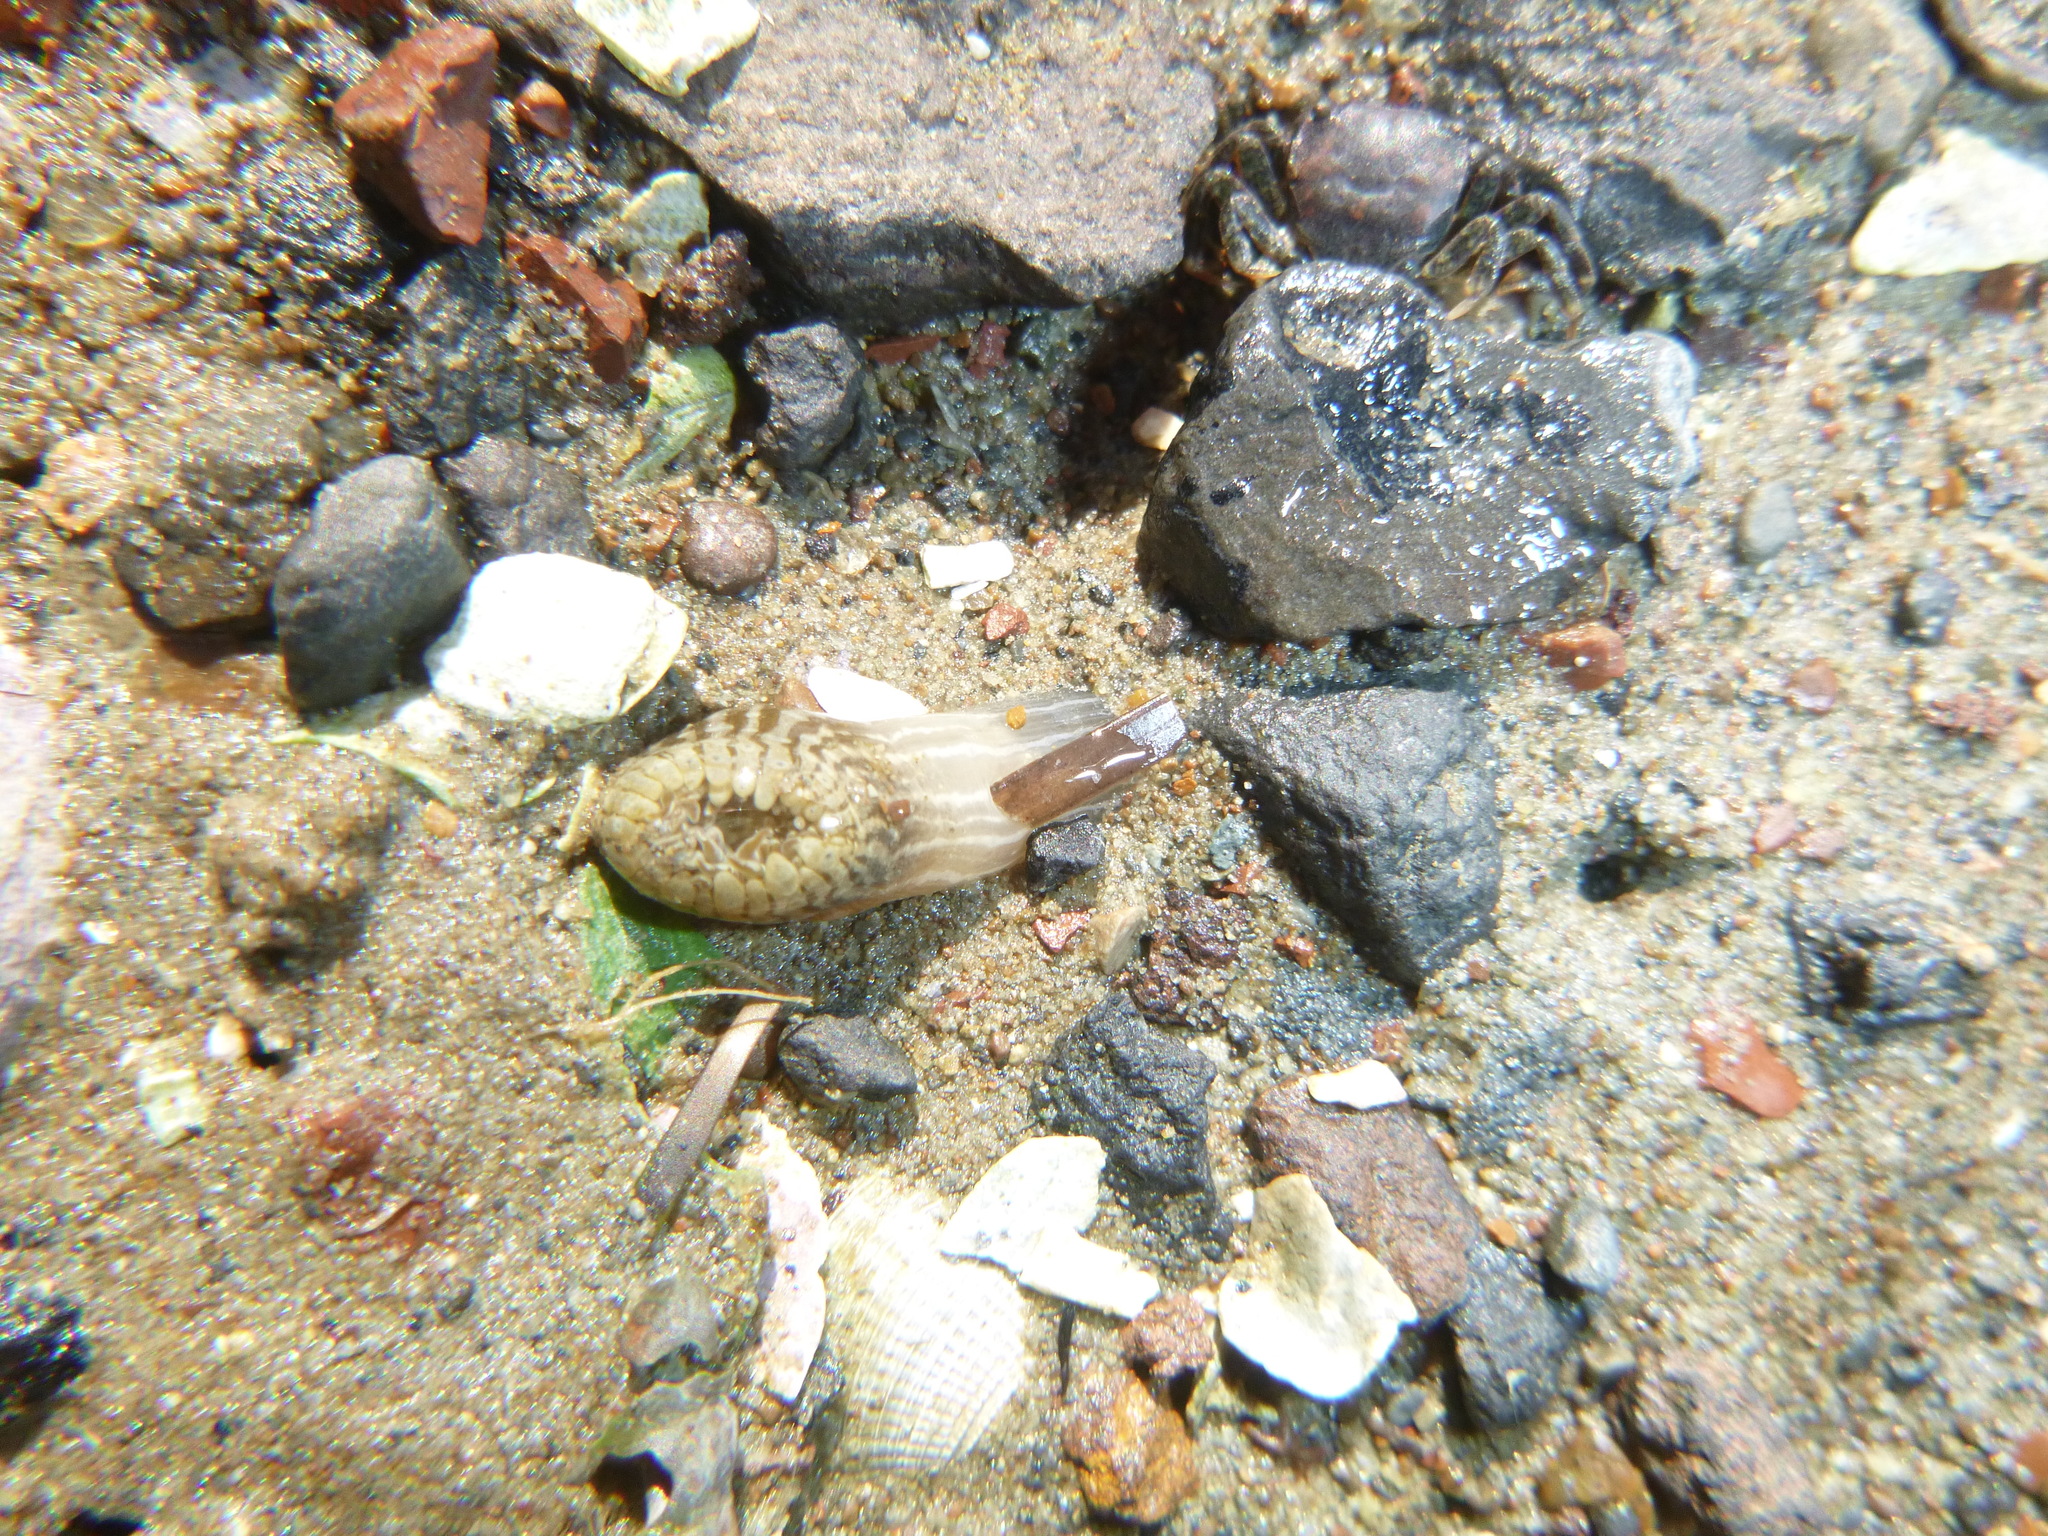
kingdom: Animalia
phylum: Cnidaria
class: Anthozoa
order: Actiniaria
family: Actiniidae
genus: Anthopleura
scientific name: Anthopleura hermaphroditica
